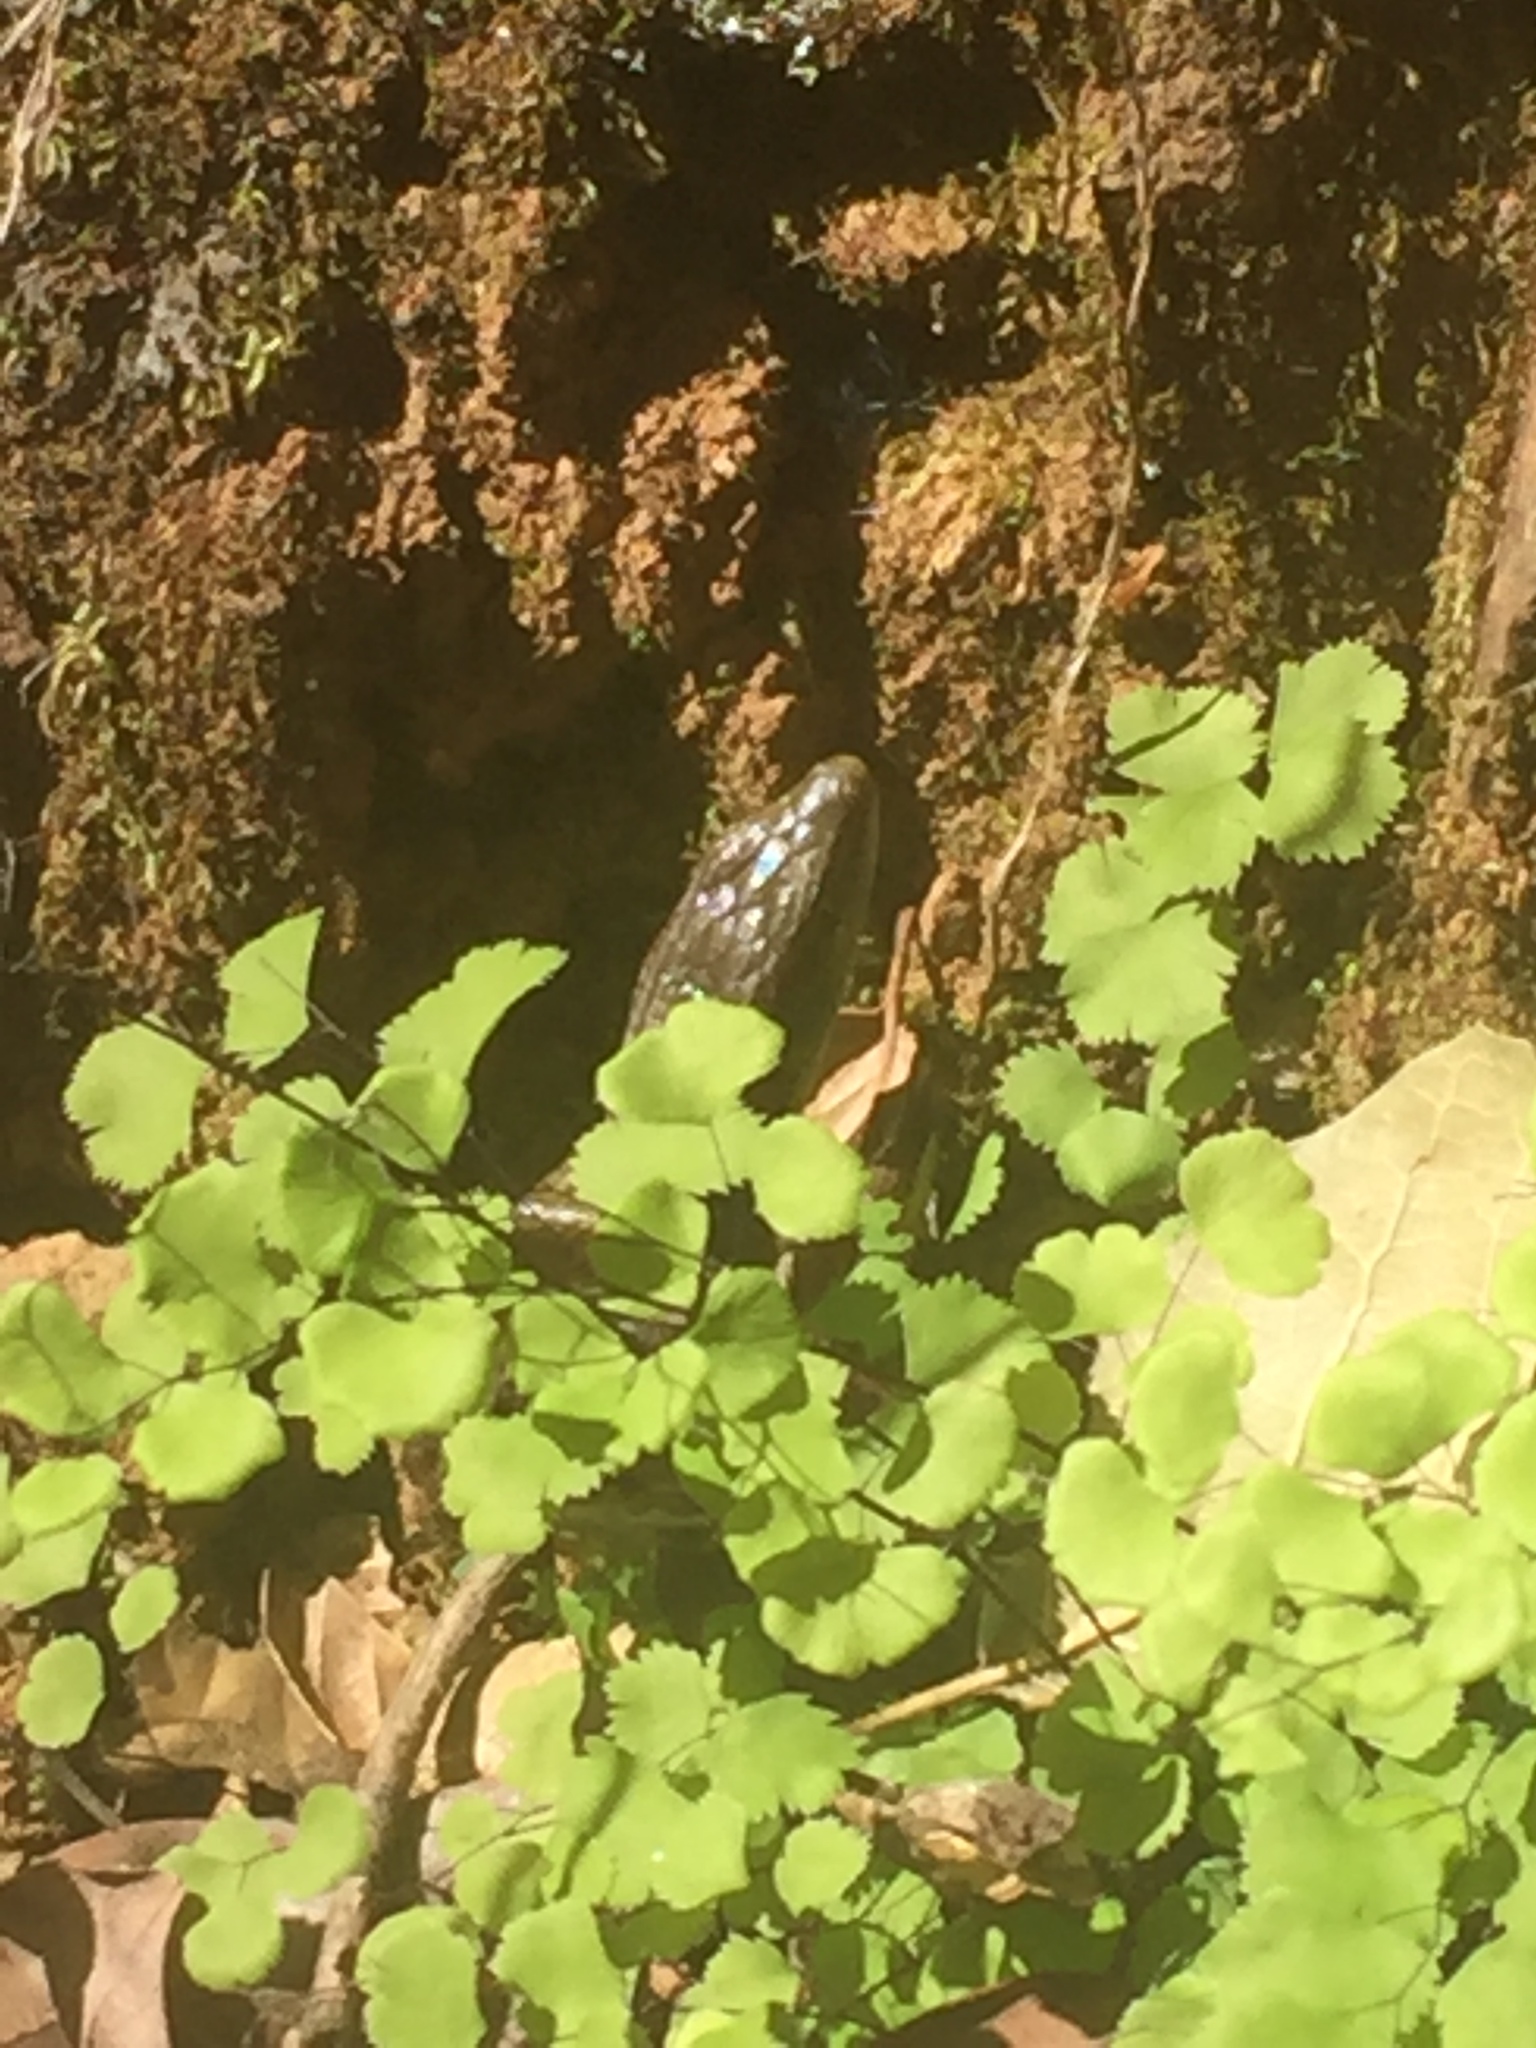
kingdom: Animalia
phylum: Chordata
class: Squamata
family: Anguidae
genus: Elgaria
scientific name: Elgaria multicarinata
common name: Southern alligator lizard
